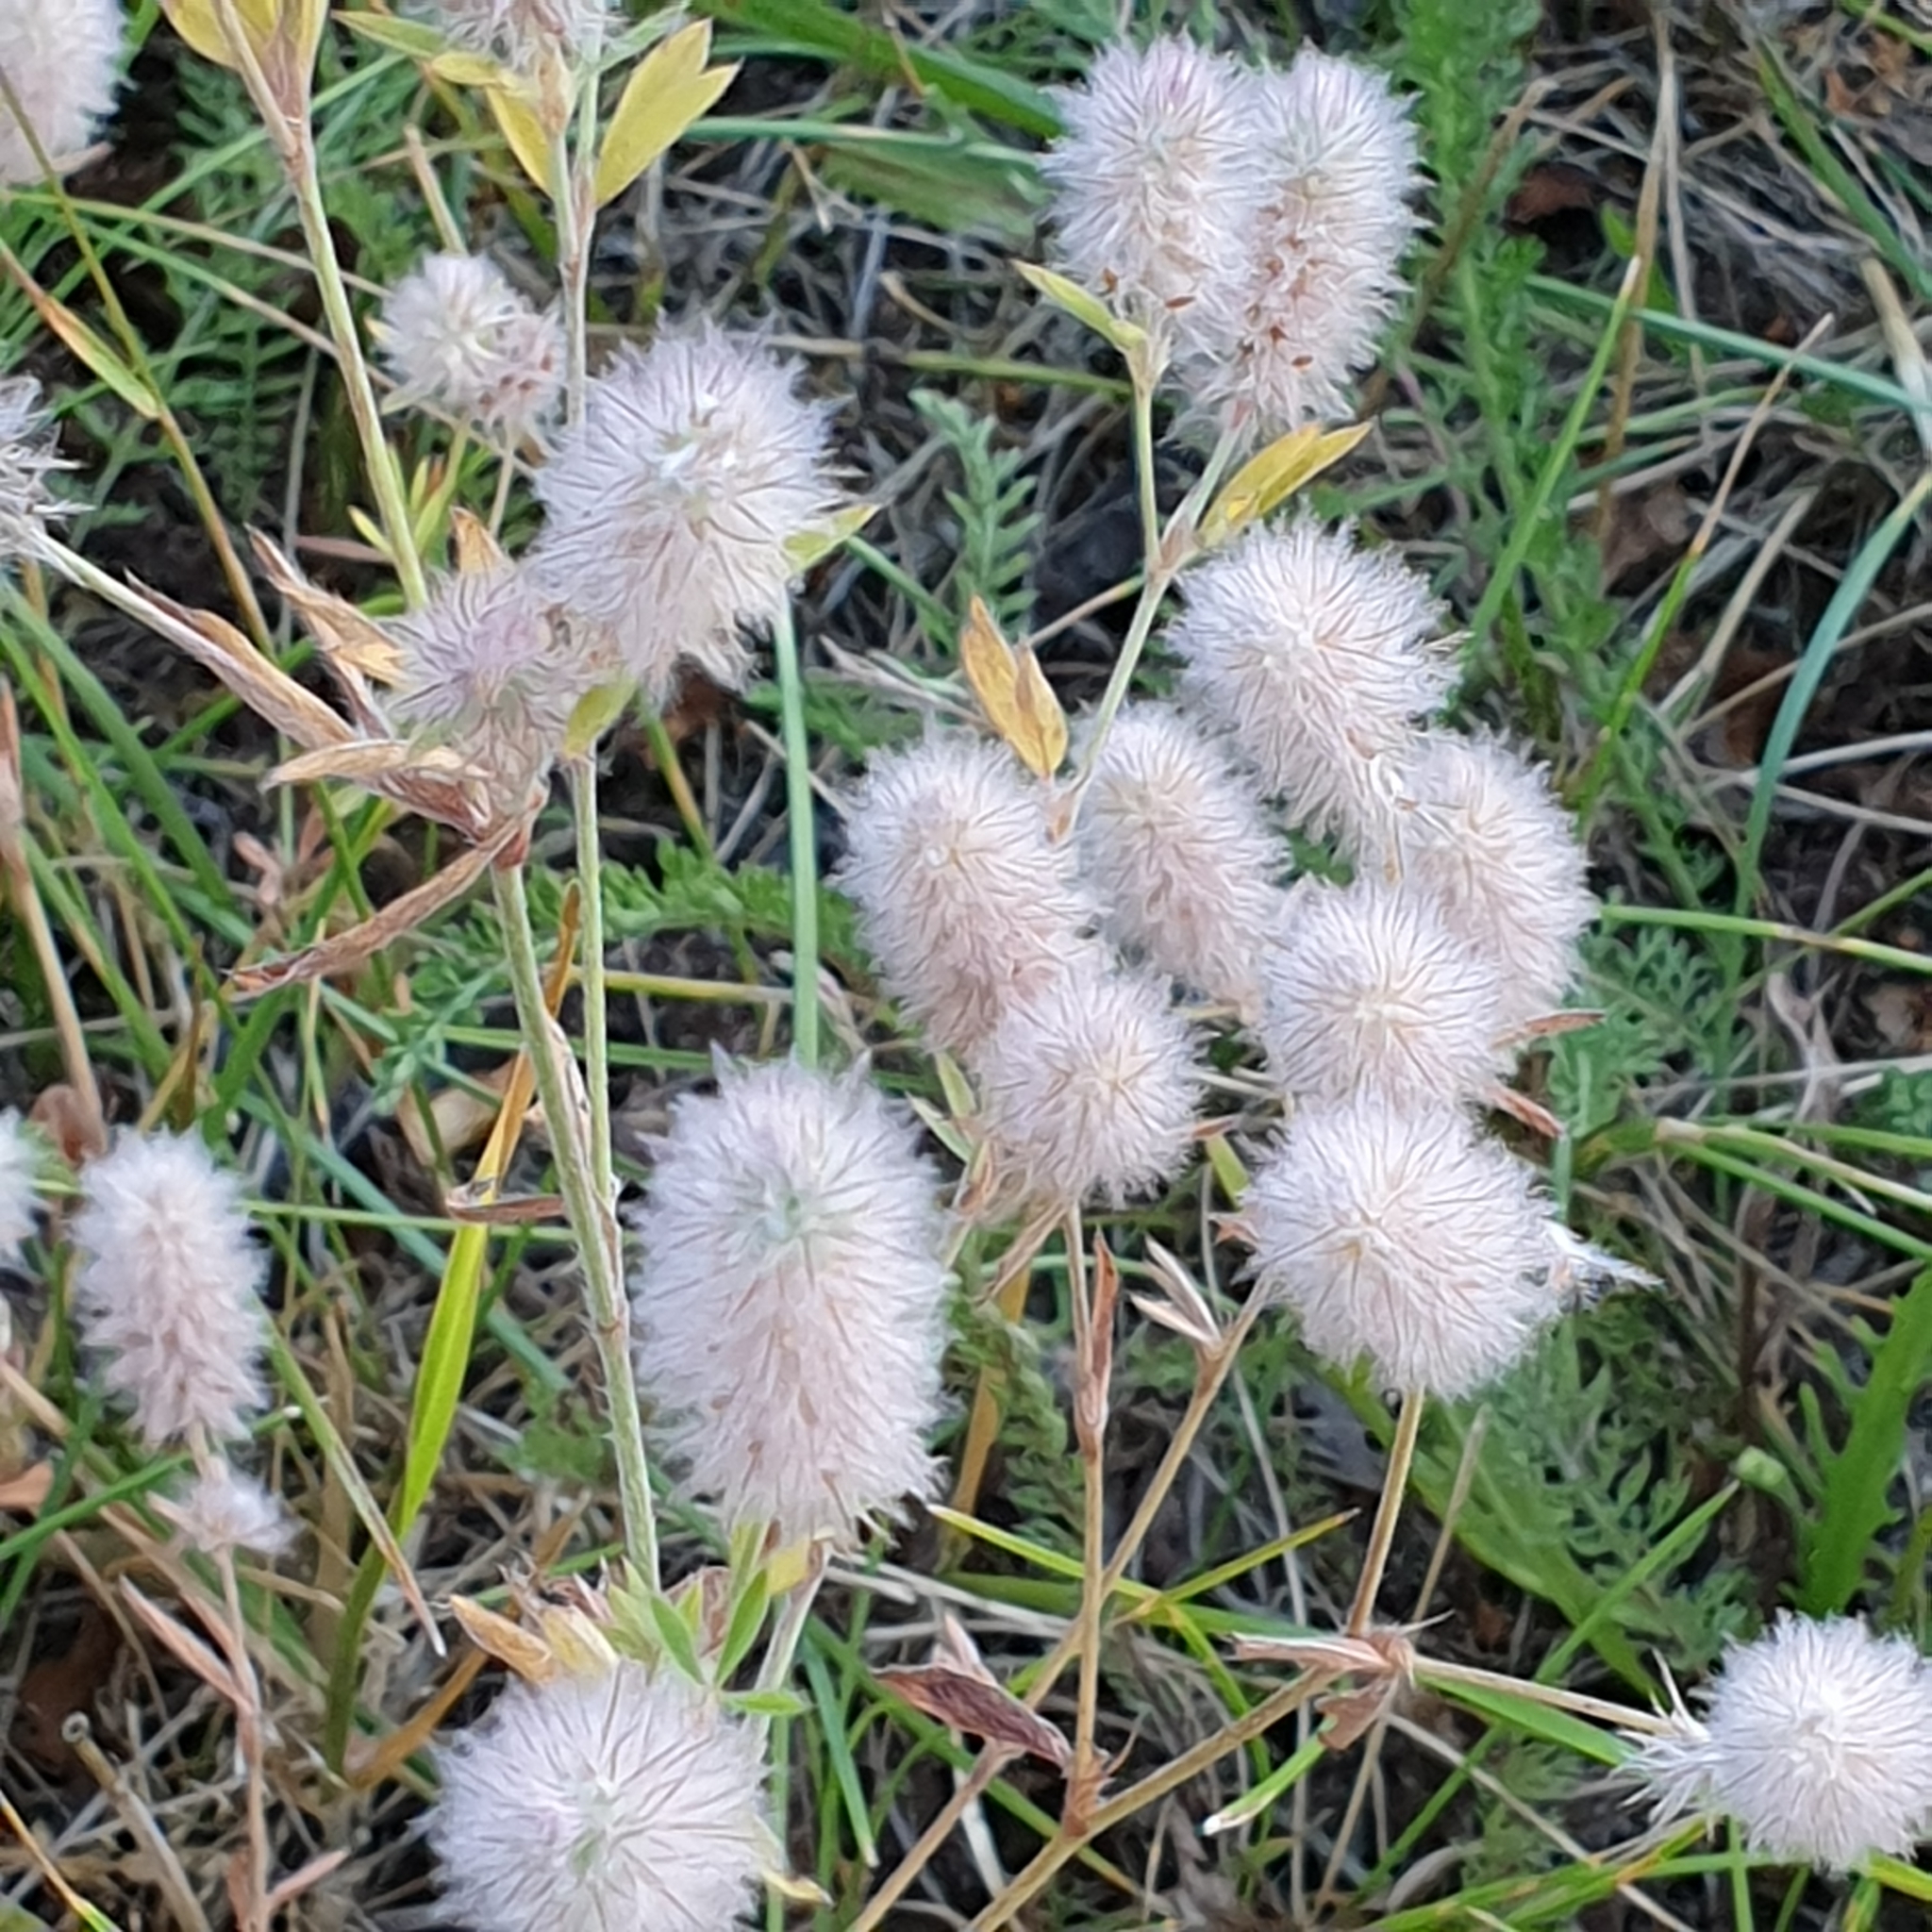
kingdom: Plantae
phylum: Tracheophyta
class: Magnoliopsida
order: Fabales
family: Fabaceae
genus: Trifolium
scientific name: Trifolium arvense
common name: Hare's-foot clover
